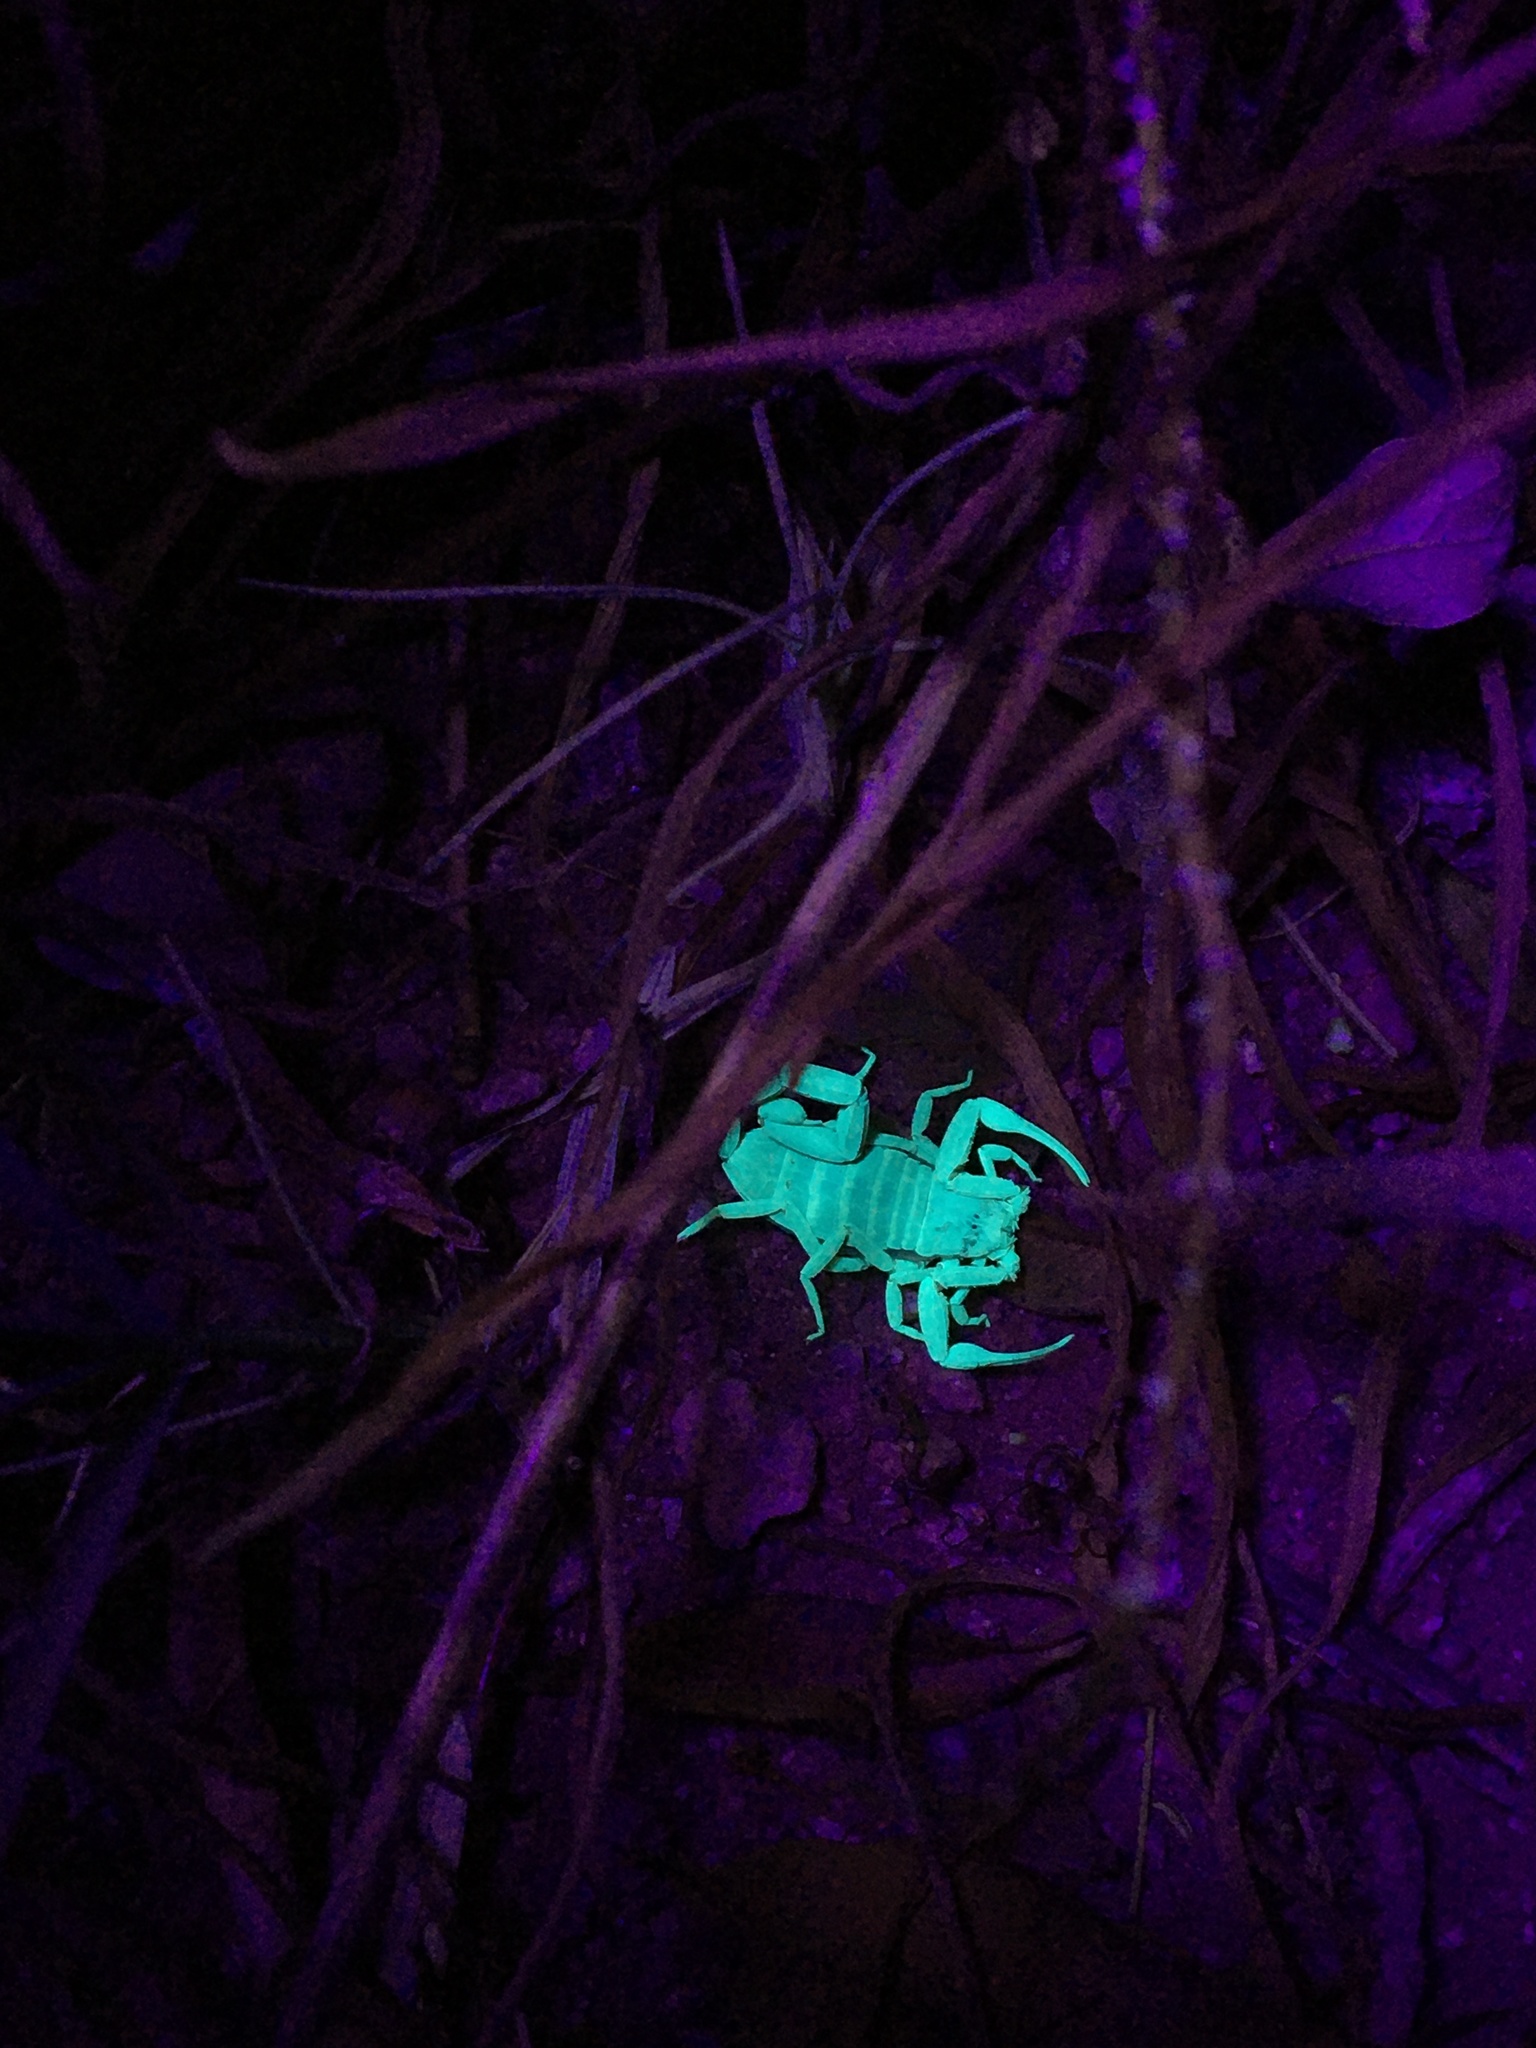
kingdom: Animalia
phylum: Arthropoda
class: Arachnida
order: Scorpiones
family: Buthidae
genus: Centruroides
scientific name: Centruroides sculpturatus
